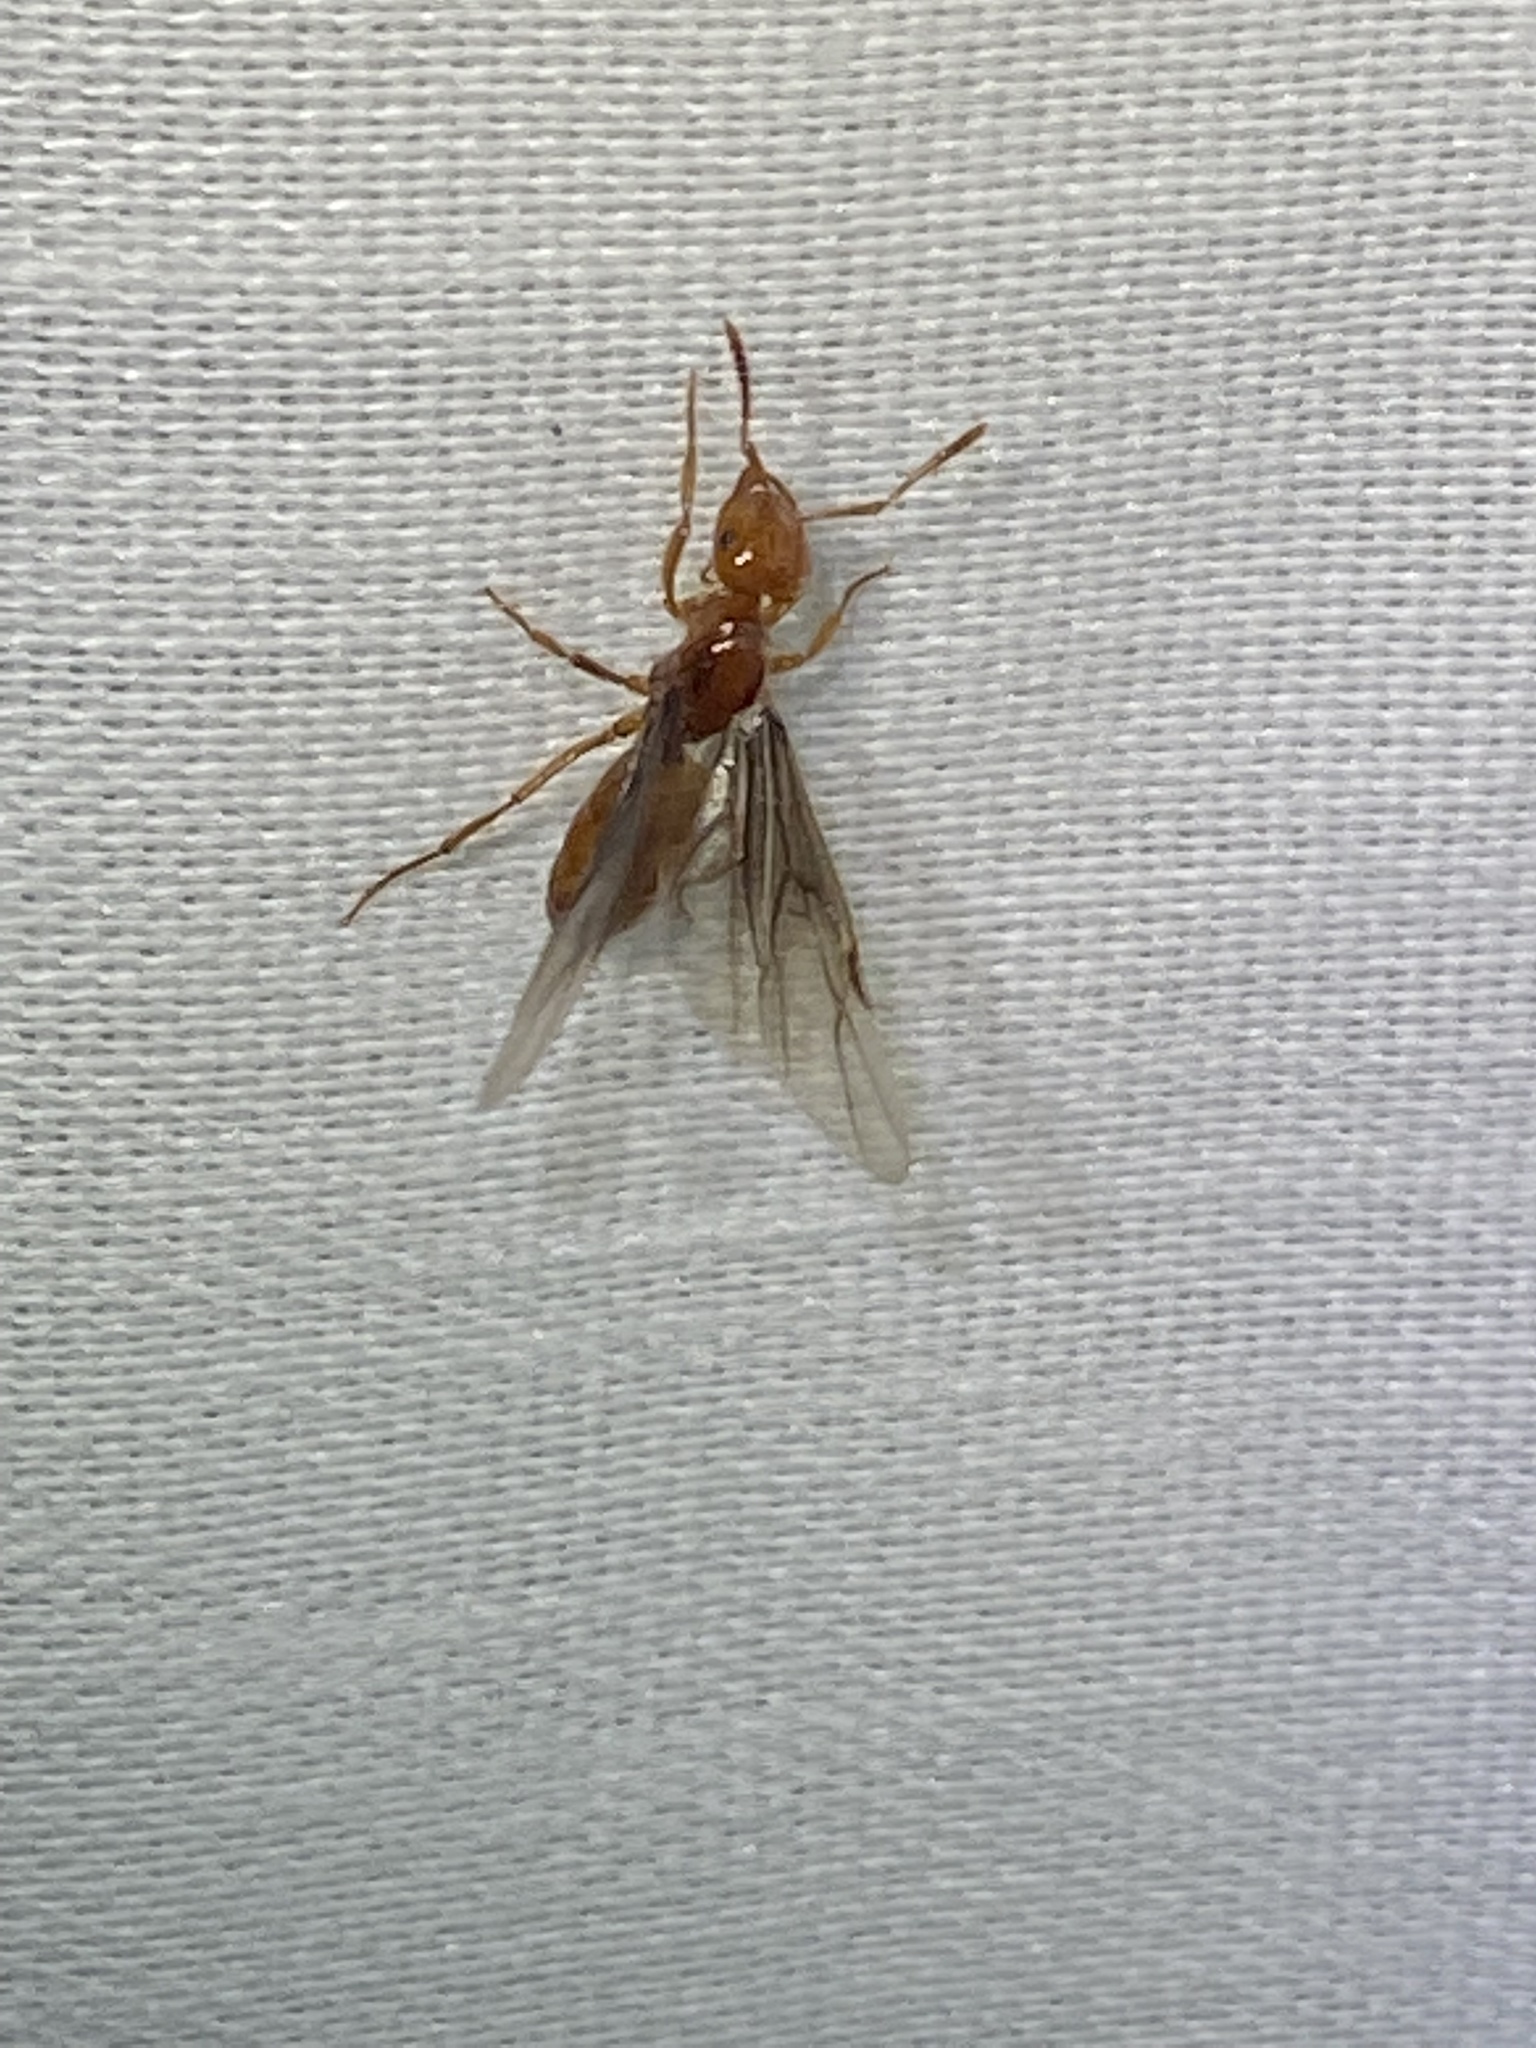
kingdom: Animalia
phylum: Arthropoda
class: Insecta
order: Hymenoptera
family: Formicidae
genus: Acanthomyops
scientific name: Acanthomyops interjectus
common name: Larger yellow ant
